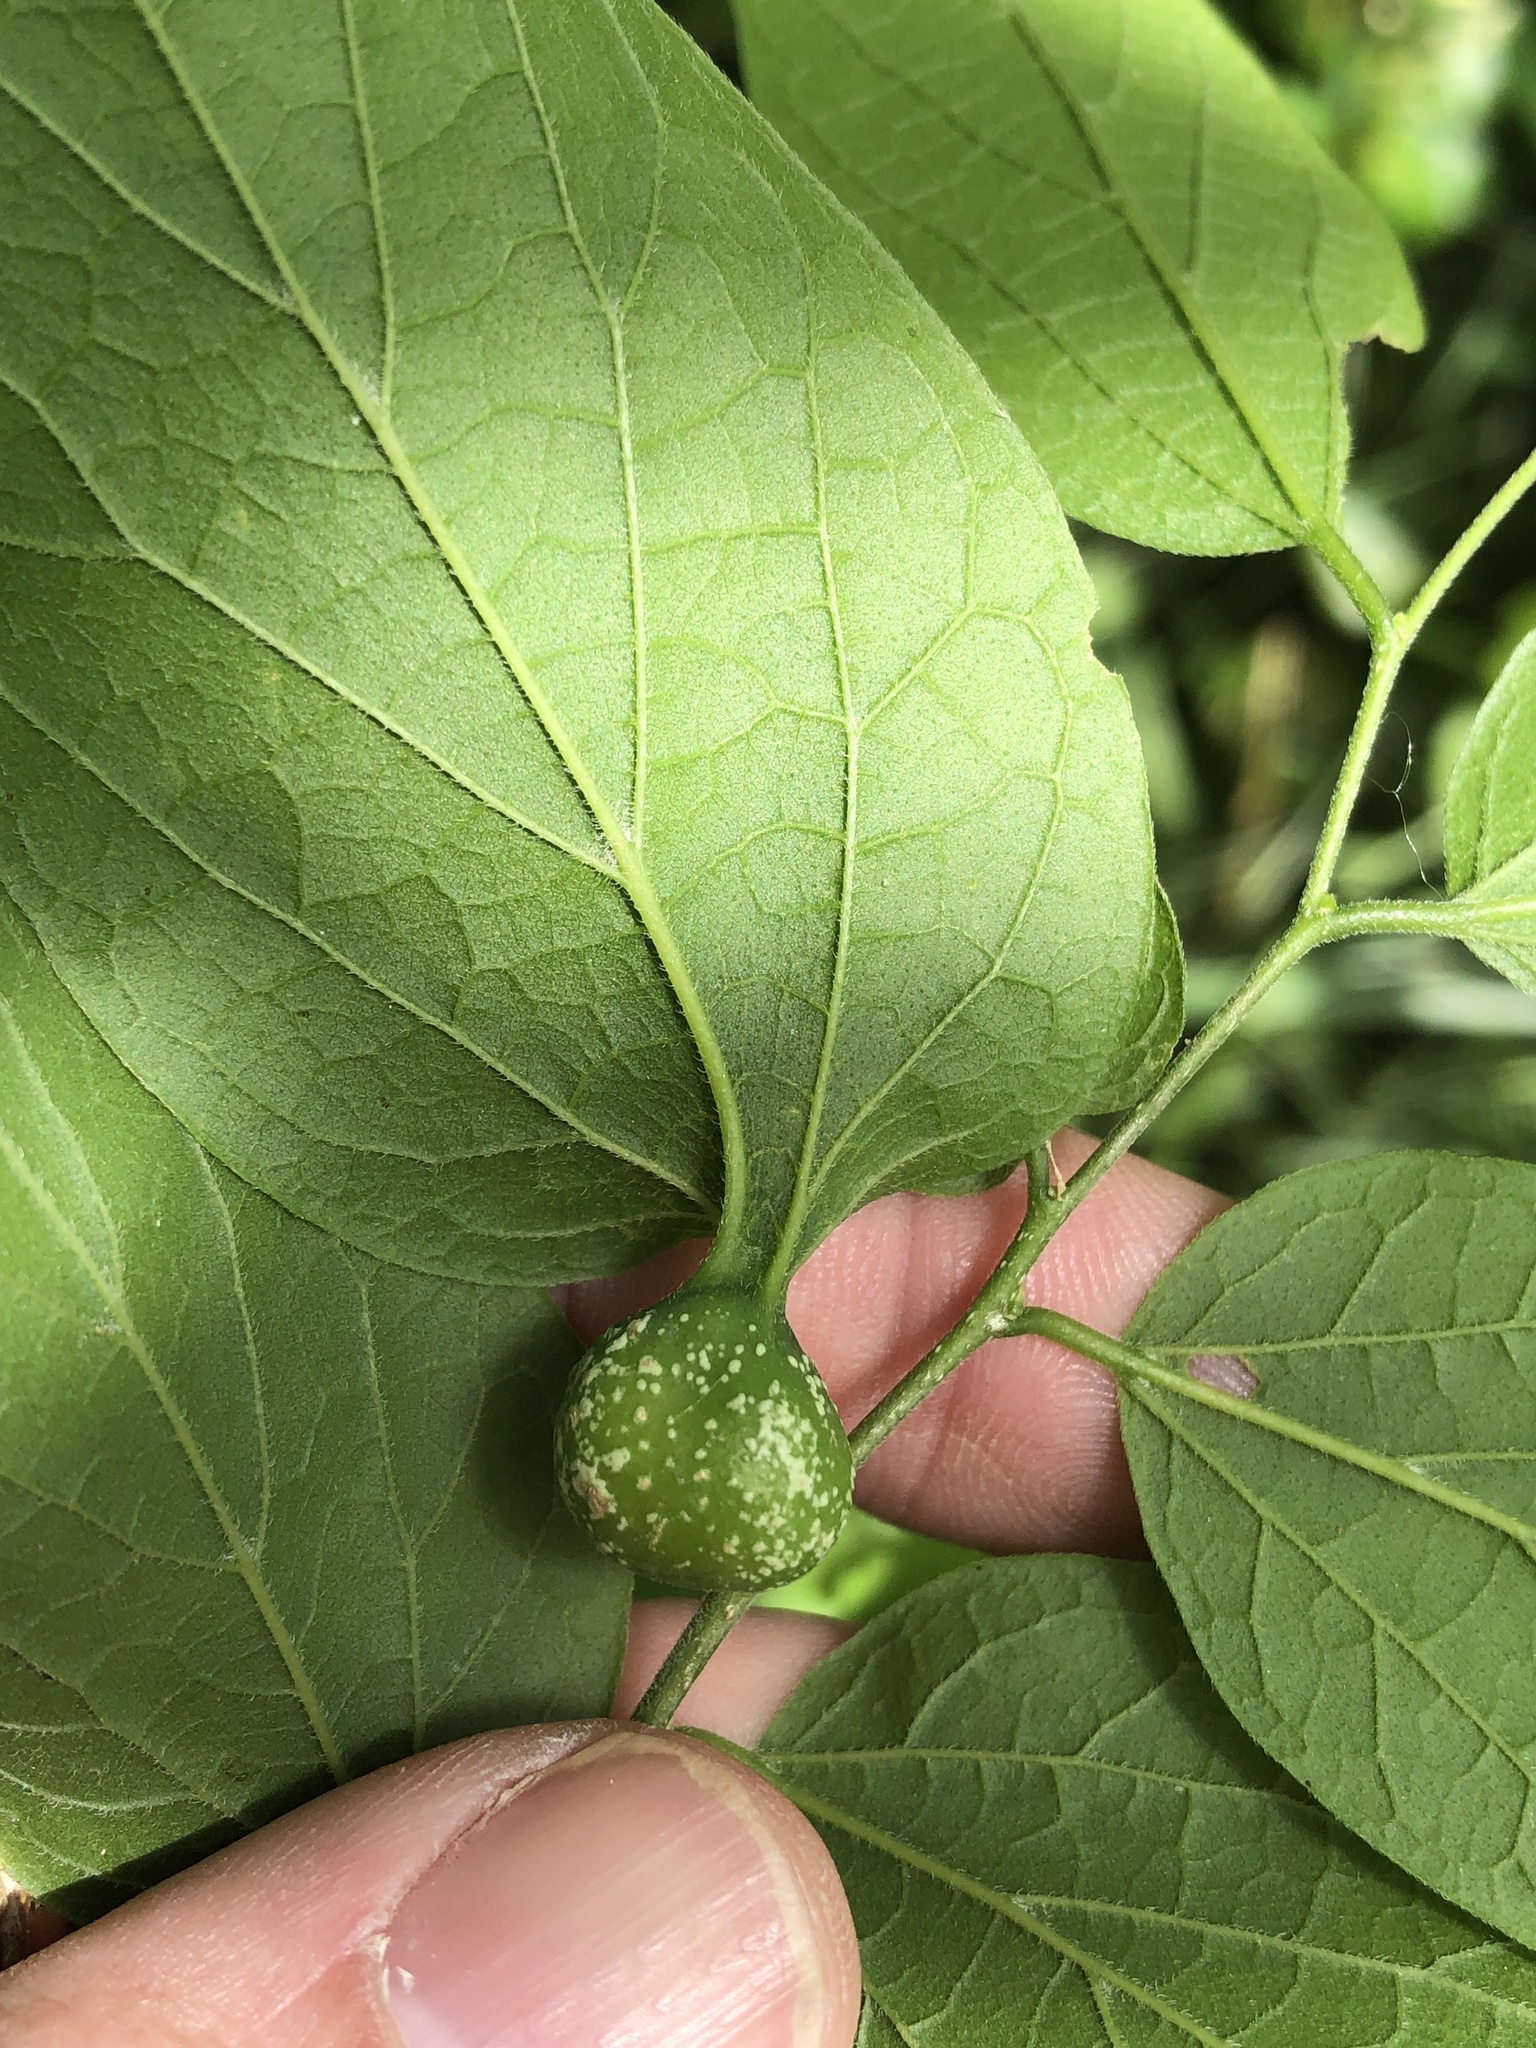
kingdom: Animalia
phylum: Arthropoda
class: Insecta
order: Hemiptera
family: Aphalaridae
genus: Pachypsylla
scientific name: Pachypsylla venusta
